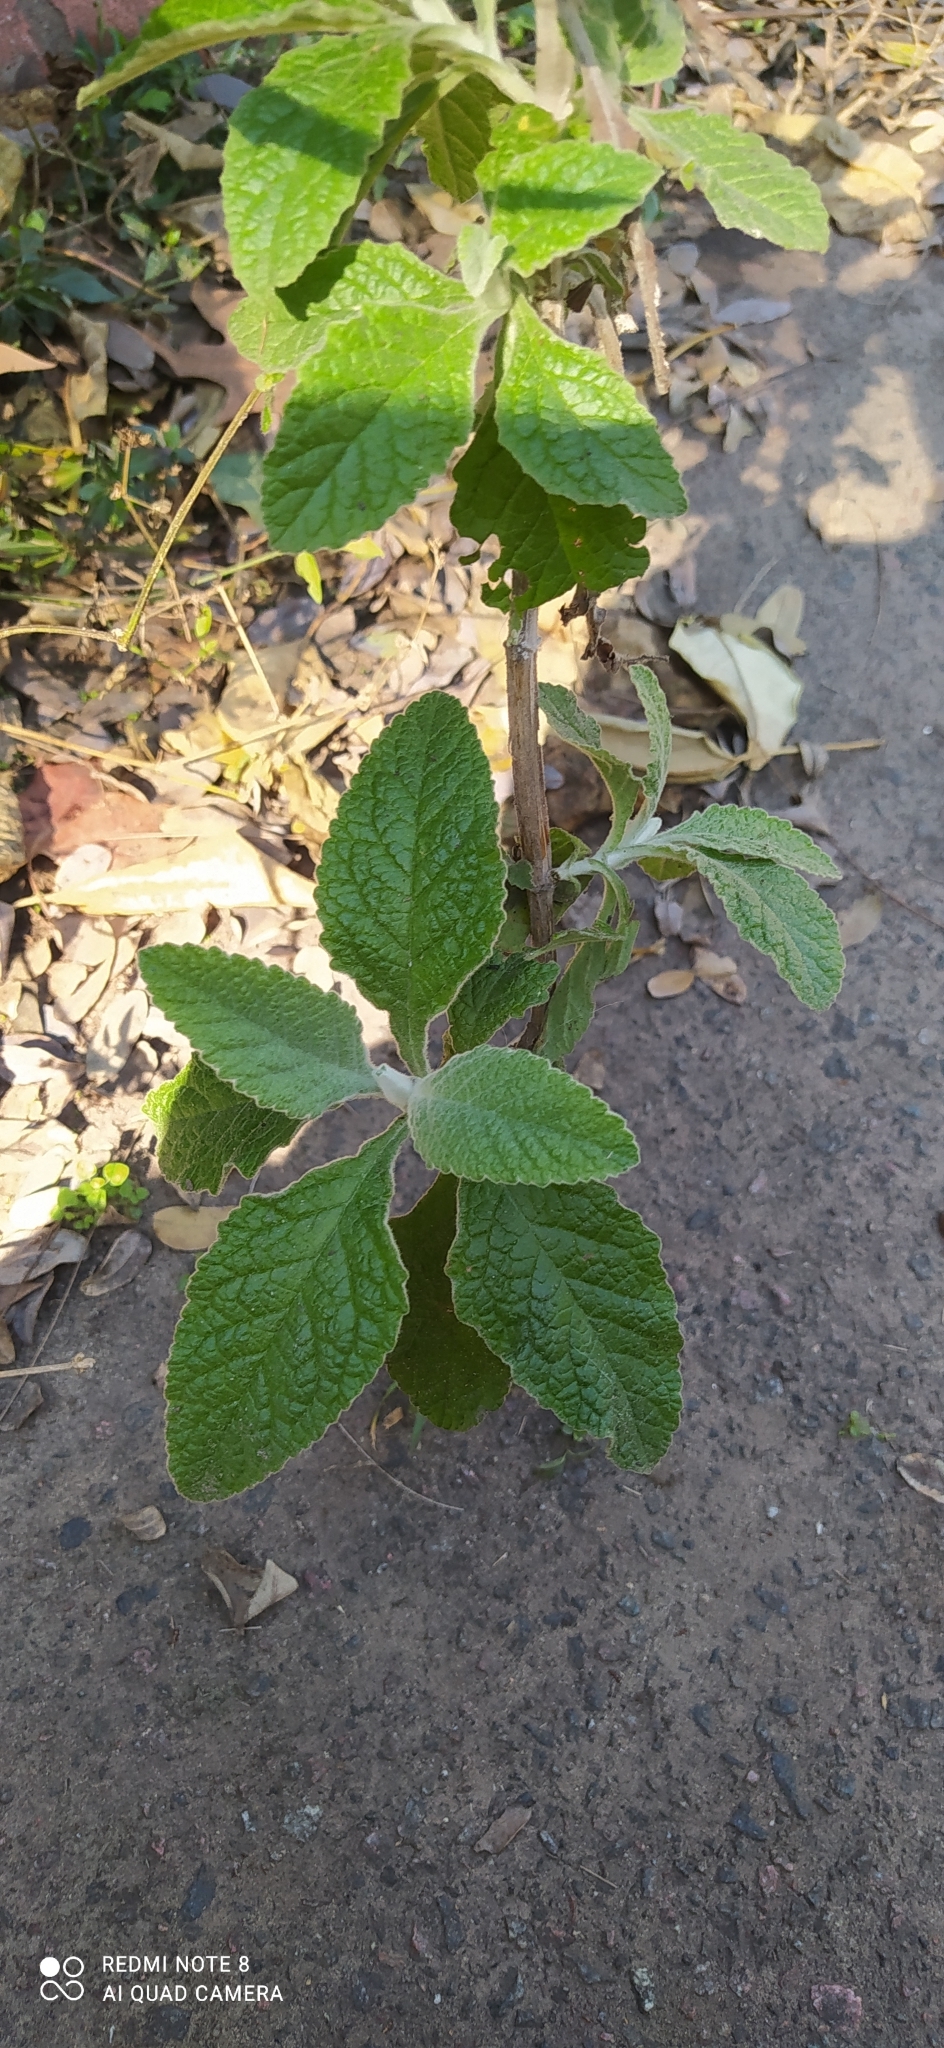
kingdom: Plantae
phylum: Tracheophyta
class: Magnoliopsida
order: Lamiales
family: Scrophulariaceae
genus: Buddleja
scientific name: Buddleja stachyoides
